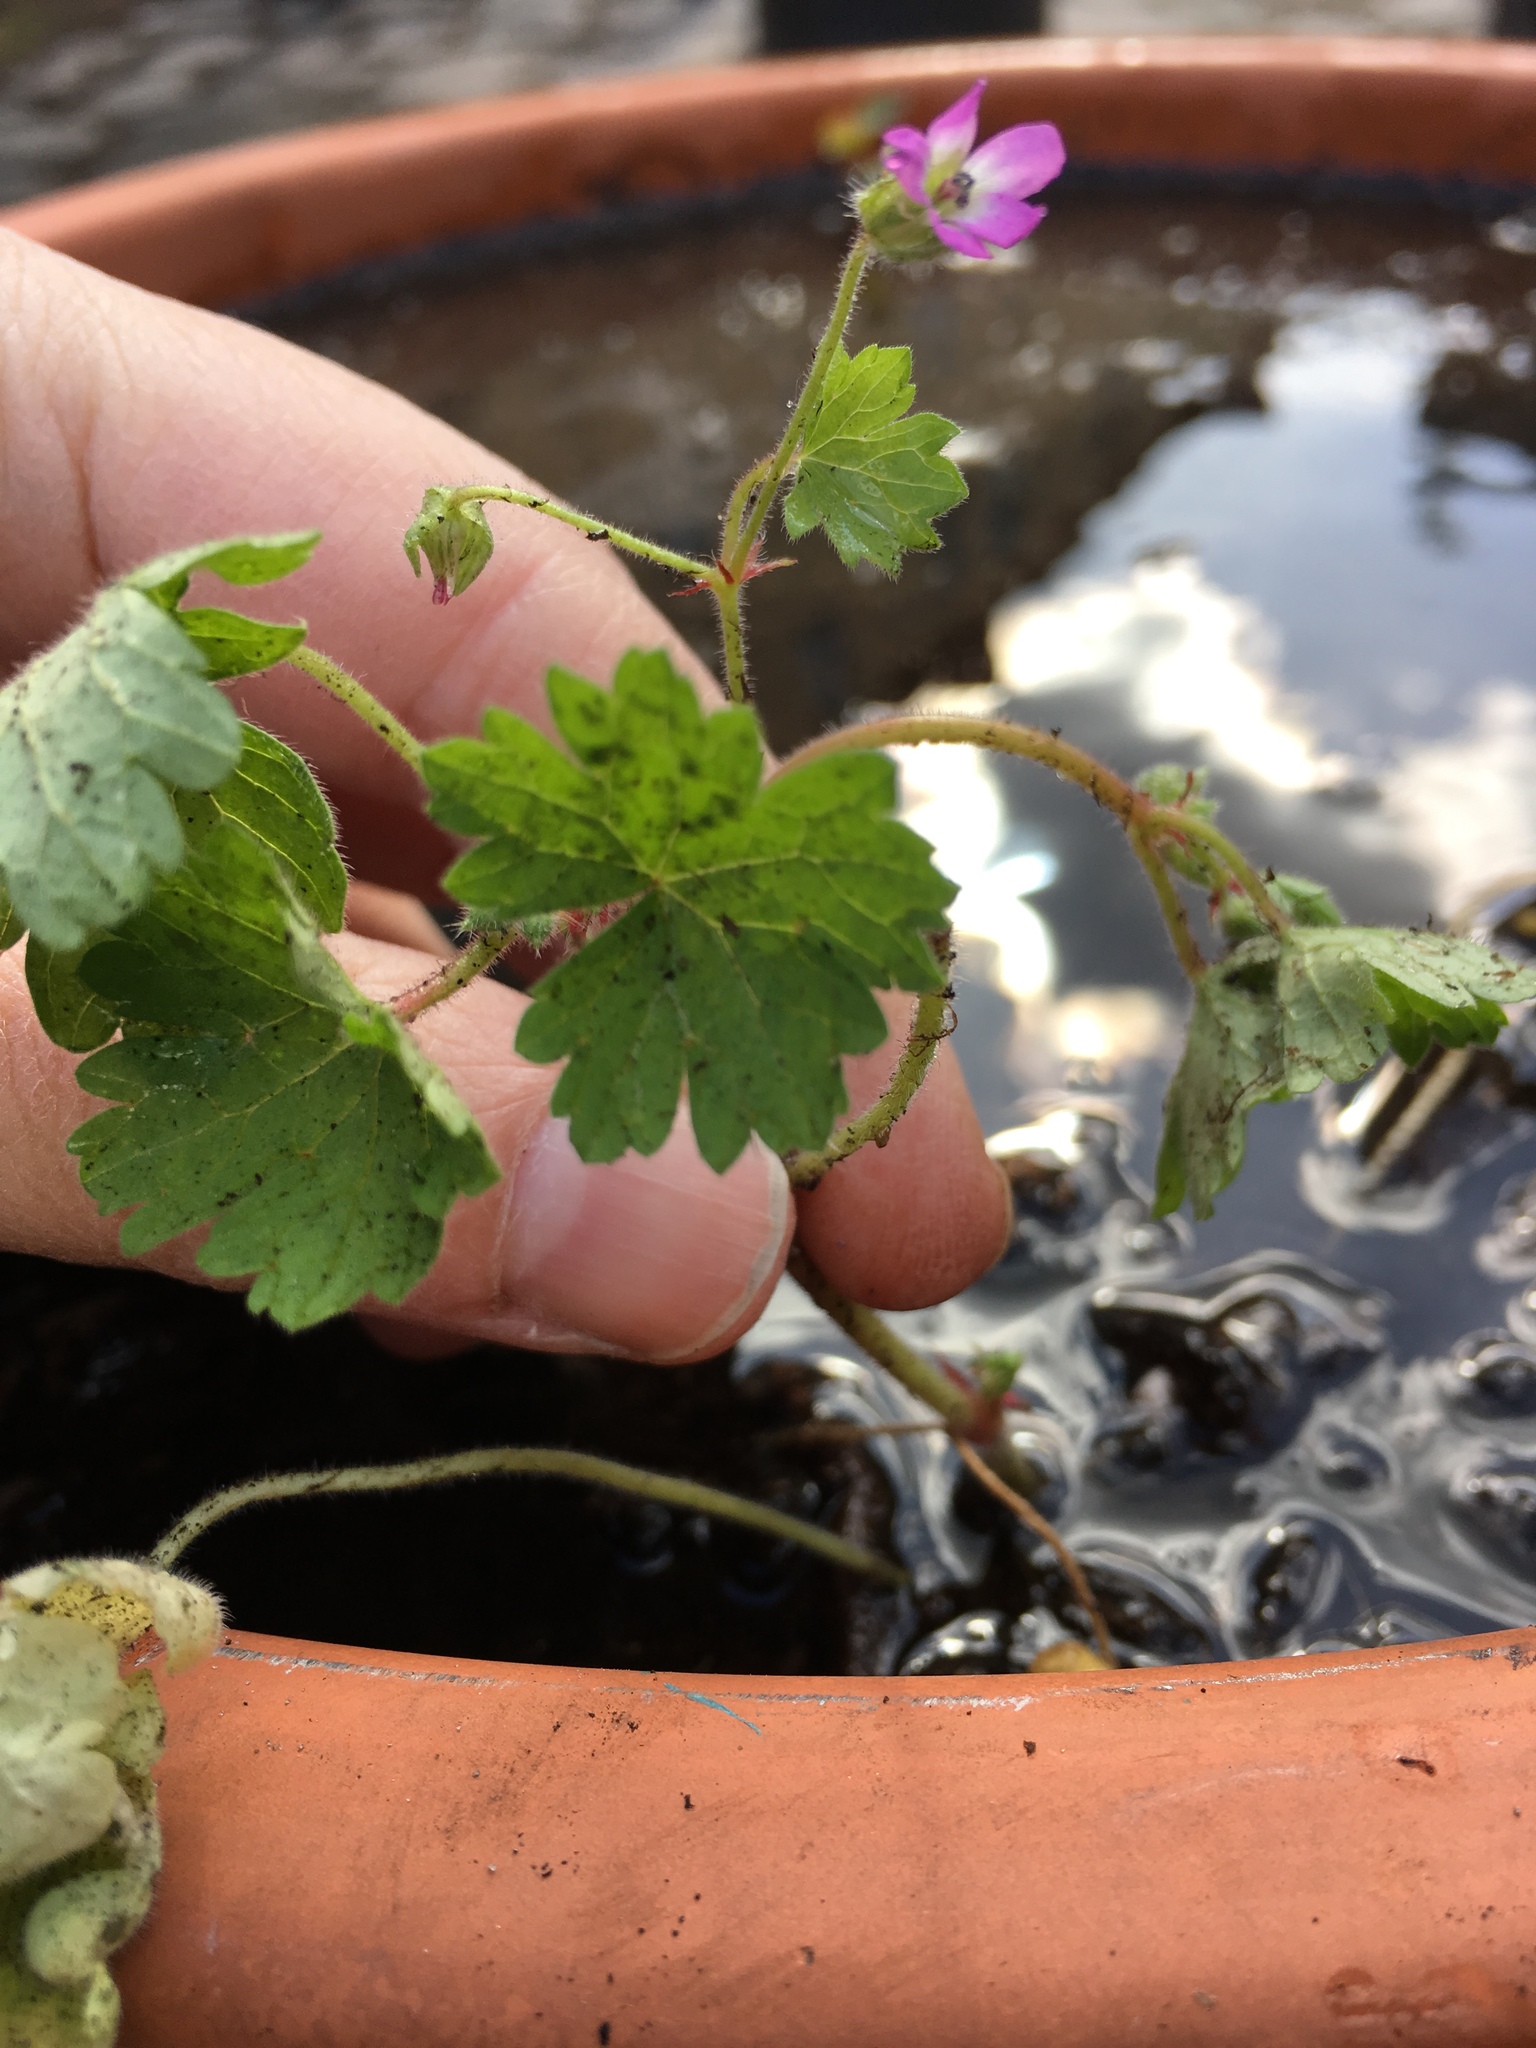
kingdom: Plantae
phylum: Tracheophyta
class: Magnoliopsida
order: Geraniales
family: Geraniaceae
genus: Geranium
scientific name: Geranium rotundifolium
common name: Round-leaved crane's-bill
